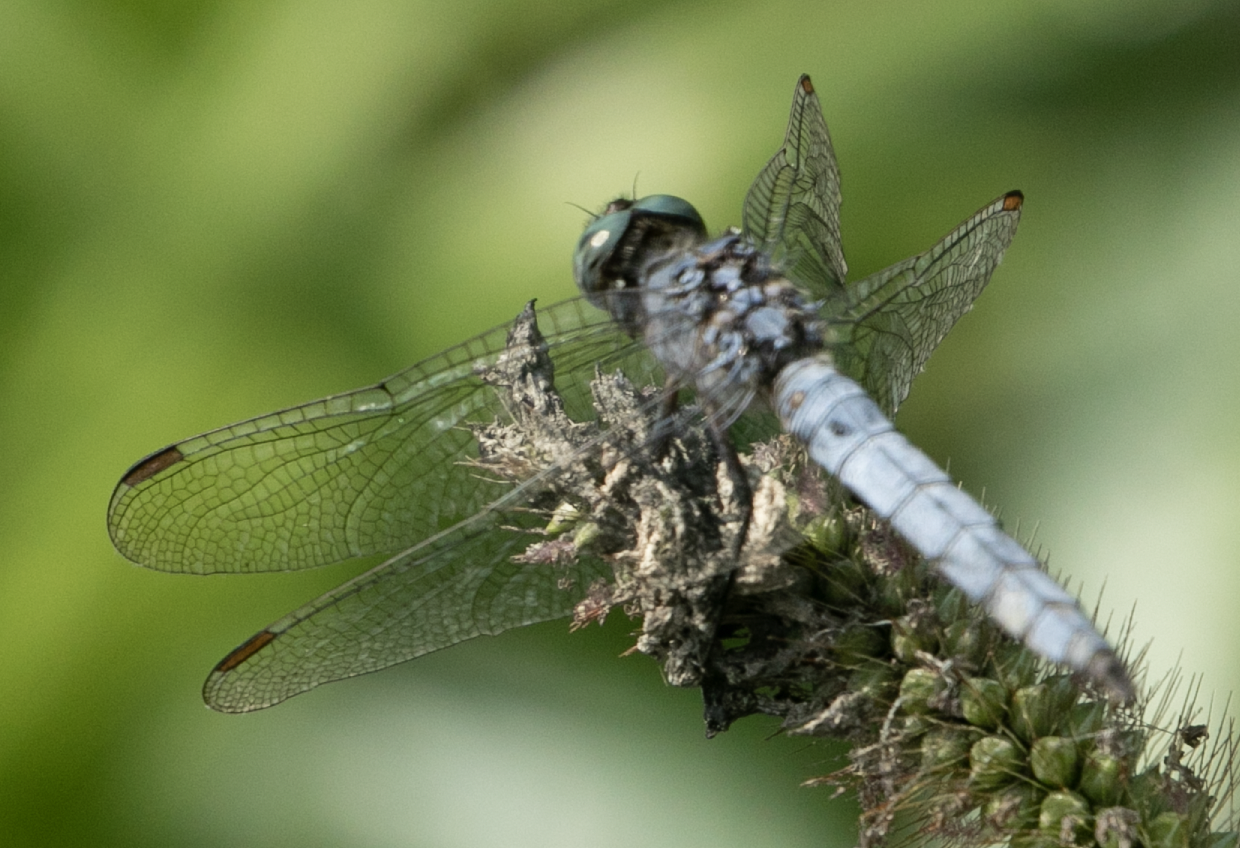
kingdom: Animalia
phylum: Arthropoda
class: Insecta
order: Odonata
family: Libellulidae
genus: Orthetrum
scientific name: Orthetrum coerulescens
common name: Keeled skimmer
